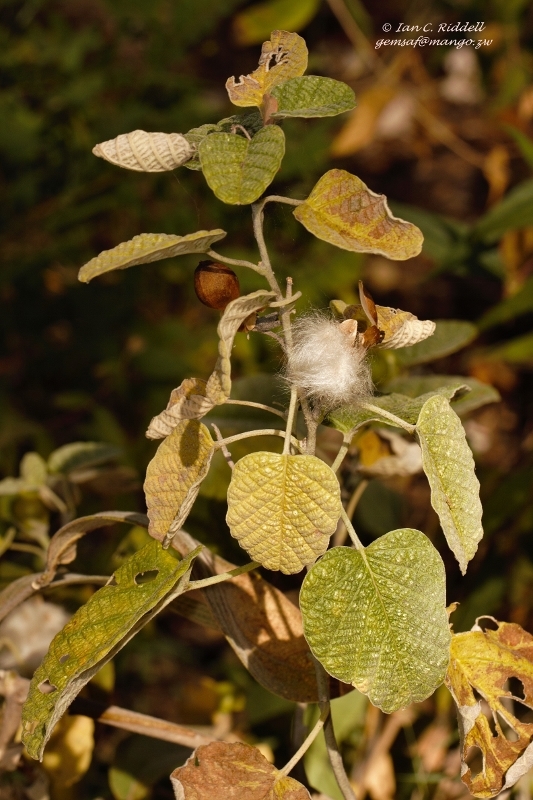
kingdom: Plantae
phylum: Tracheophyta
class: Magnoliopsida
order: Solanales
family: Convolvulaceae
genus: Ipomoea
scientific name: Ipomoea verbascoidea
